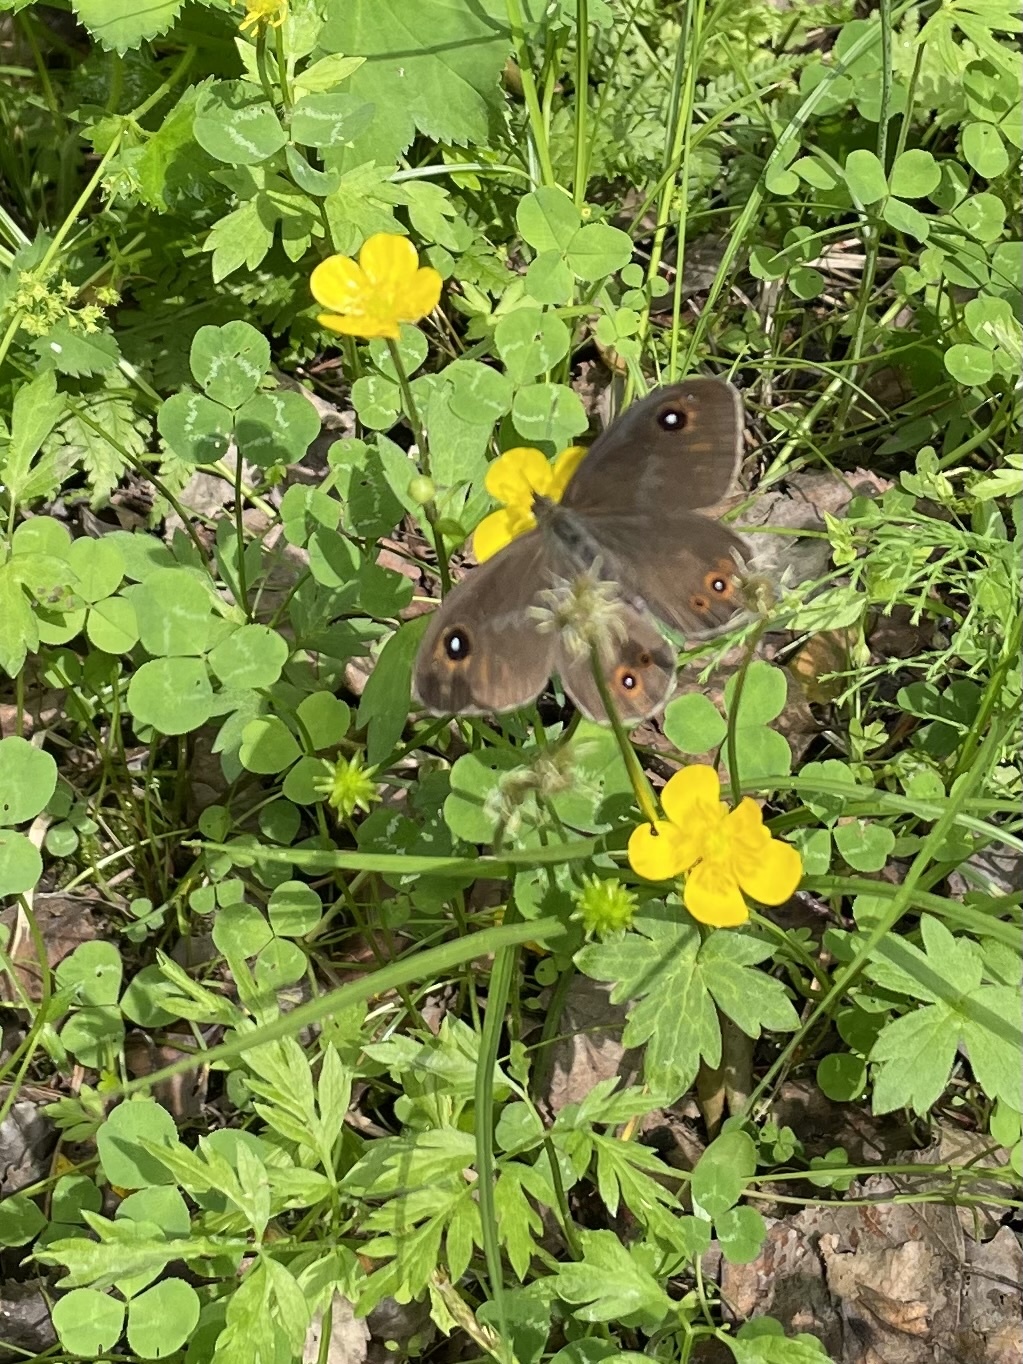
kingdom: Animalia
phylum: Arthropoda
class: Insecta
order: Lepidoptera
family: Nymphalidae
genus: Pararge
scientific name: Pararge Lasiommata maera
